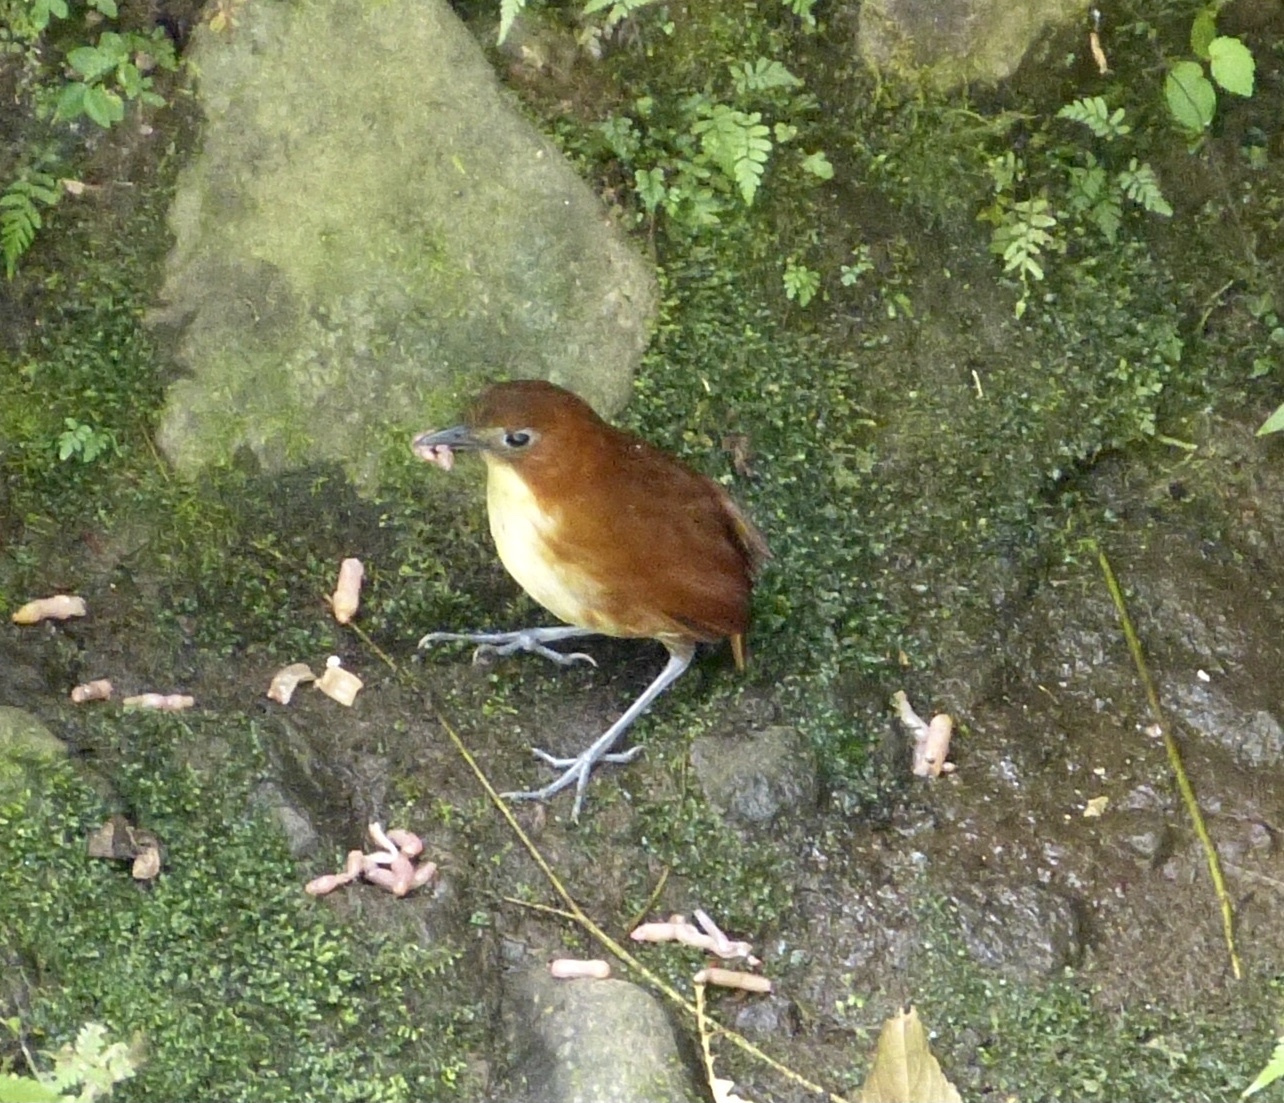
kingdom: Animalia
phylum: Chordata
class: Aves
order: Passeriformes
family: Grallariidae
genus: Grallaria
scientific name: Grallaria flavotincta
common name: Yellow-breasted antpitta
